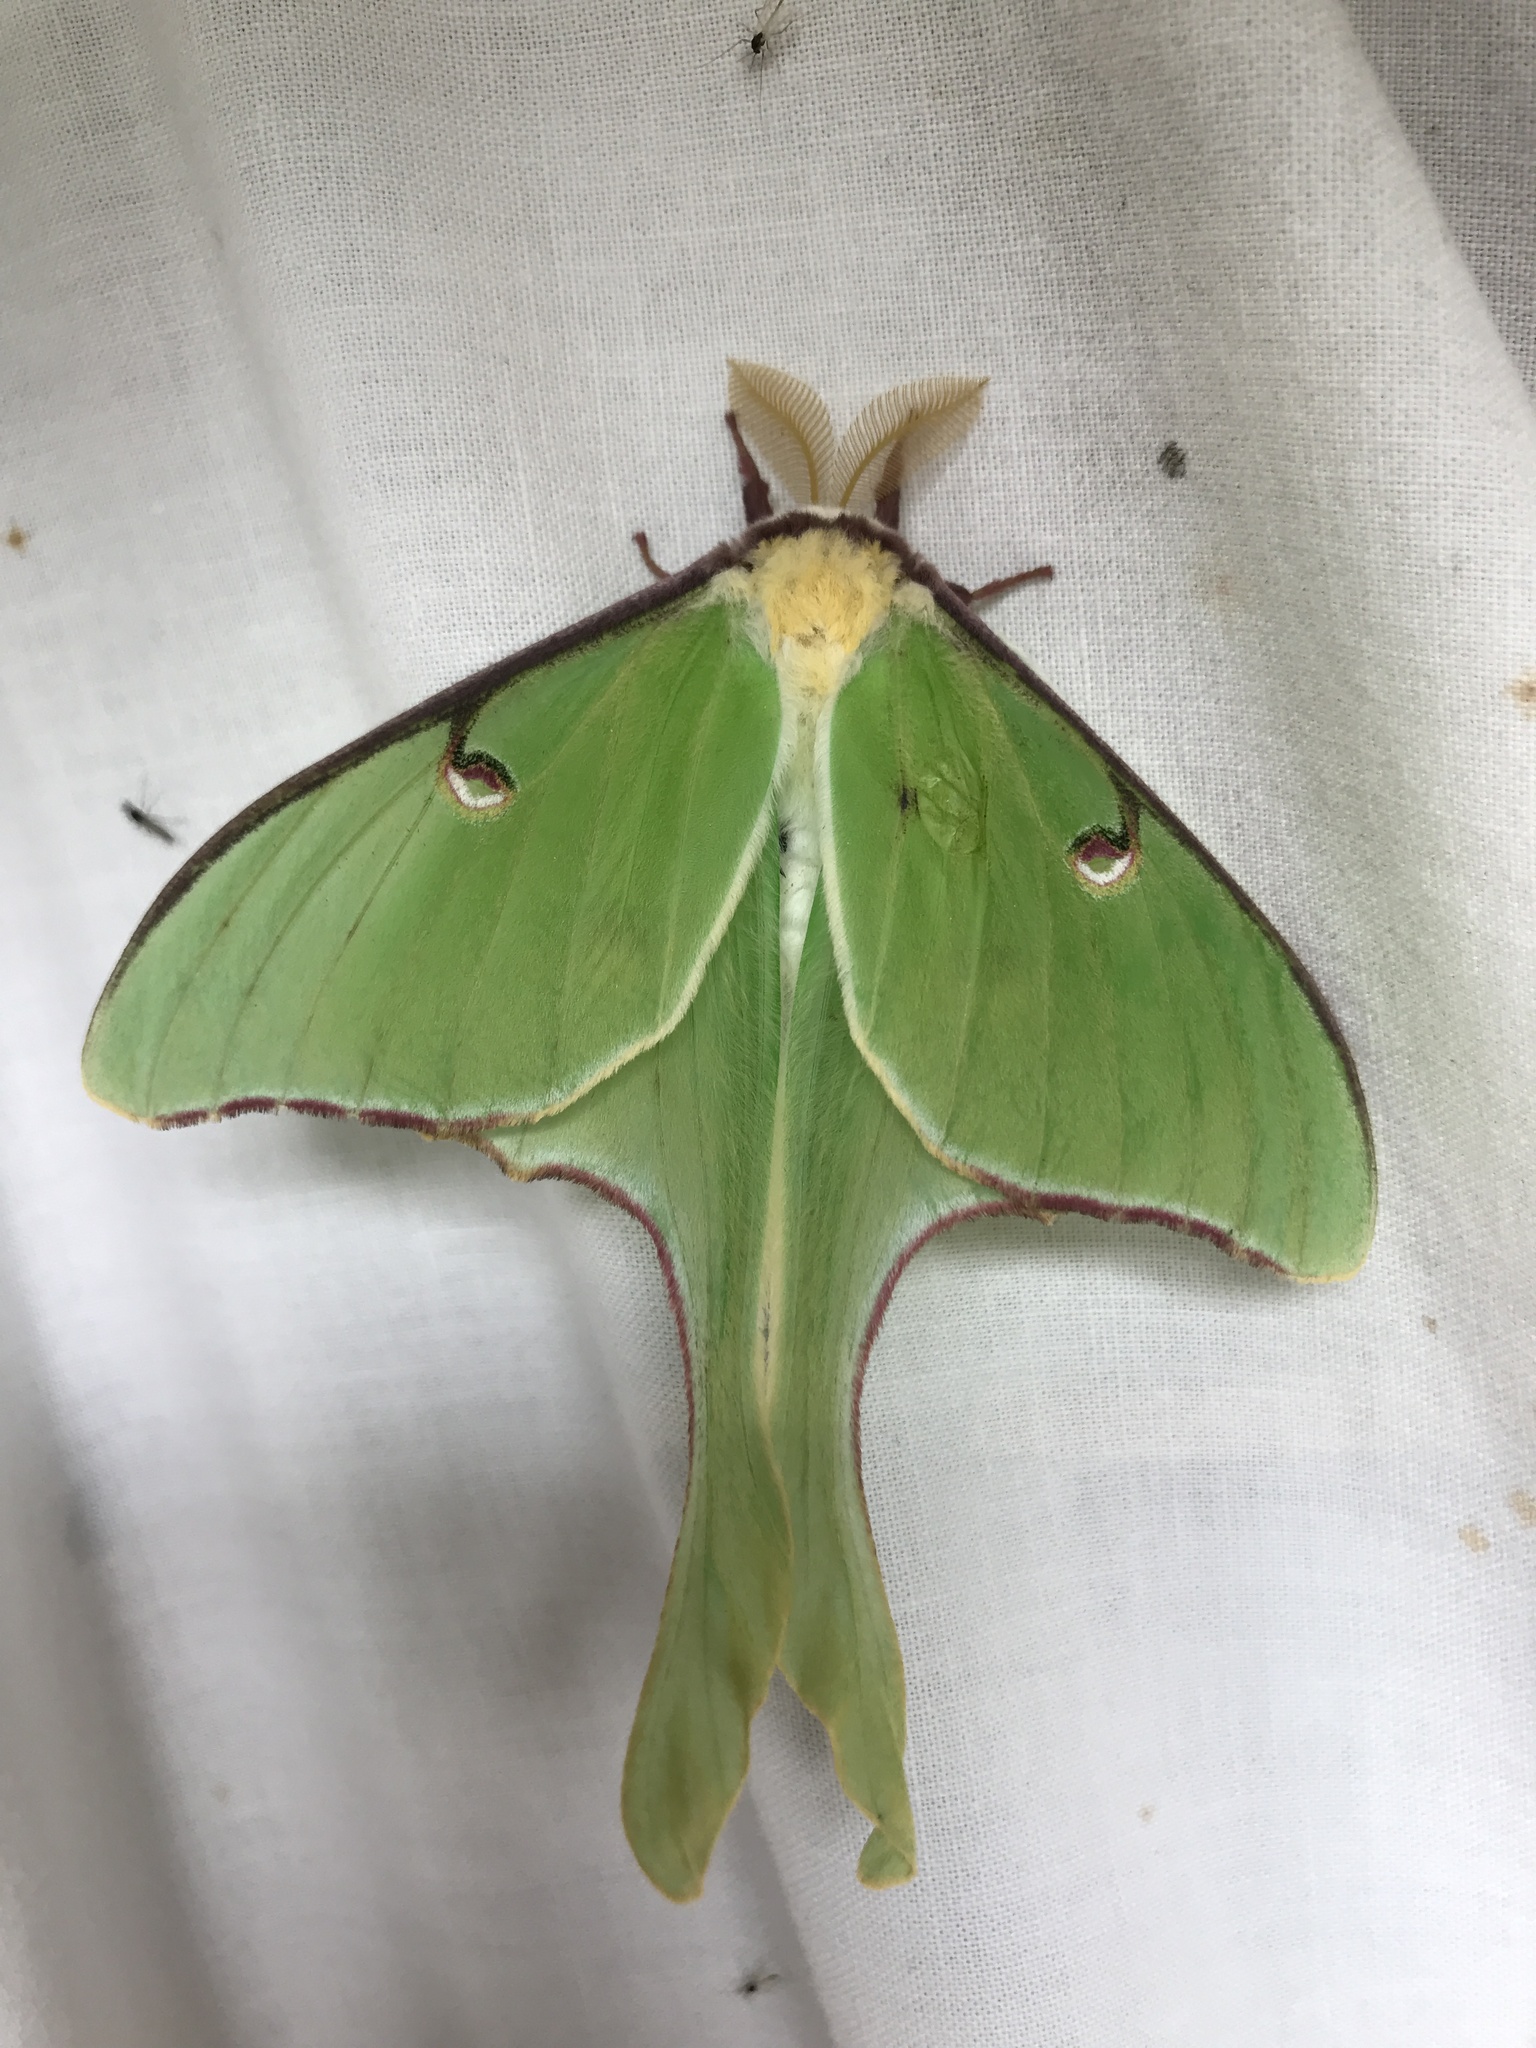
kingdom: Animalia
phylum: Arthropoda
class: Insecta
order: Lepidoptera
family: Saturniidae
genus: Actias
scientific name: Actias luna
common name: Luna moth
